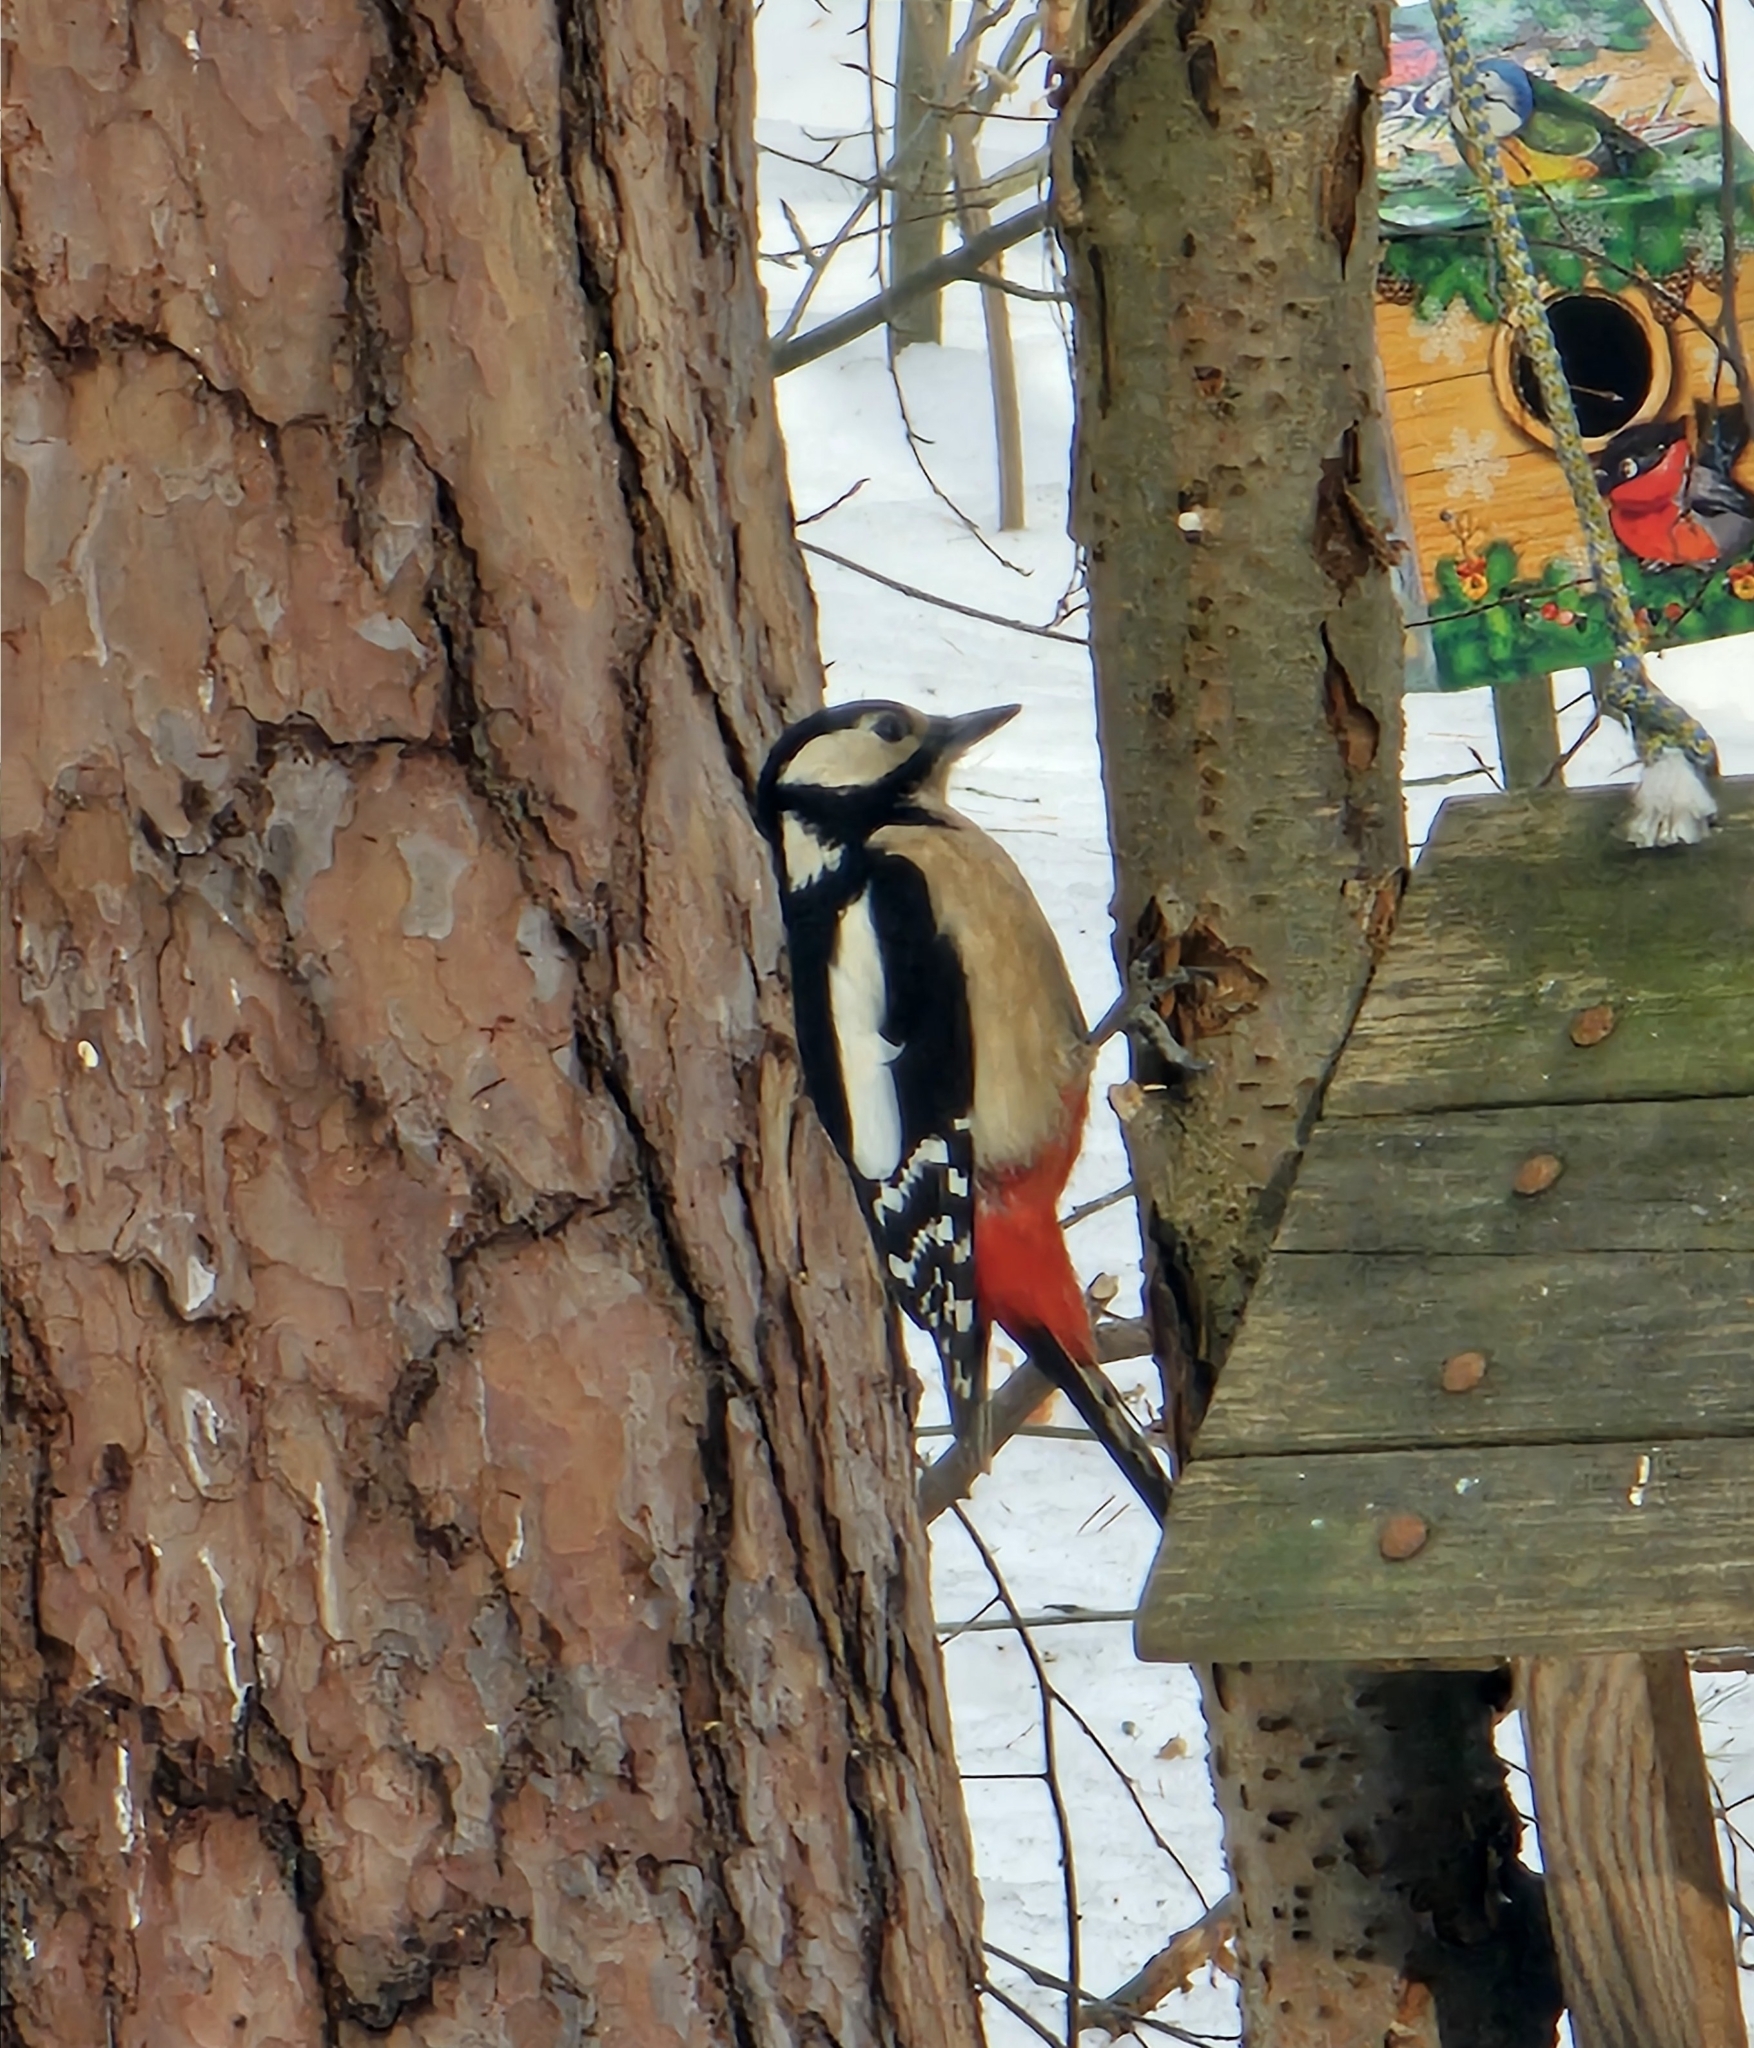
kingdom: Animalia
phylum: Chordata
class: Aves
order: Piciformes
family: Picidae
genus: Dendrocopos
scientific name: Dendrocopos major
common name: Great spotted woodpecker
